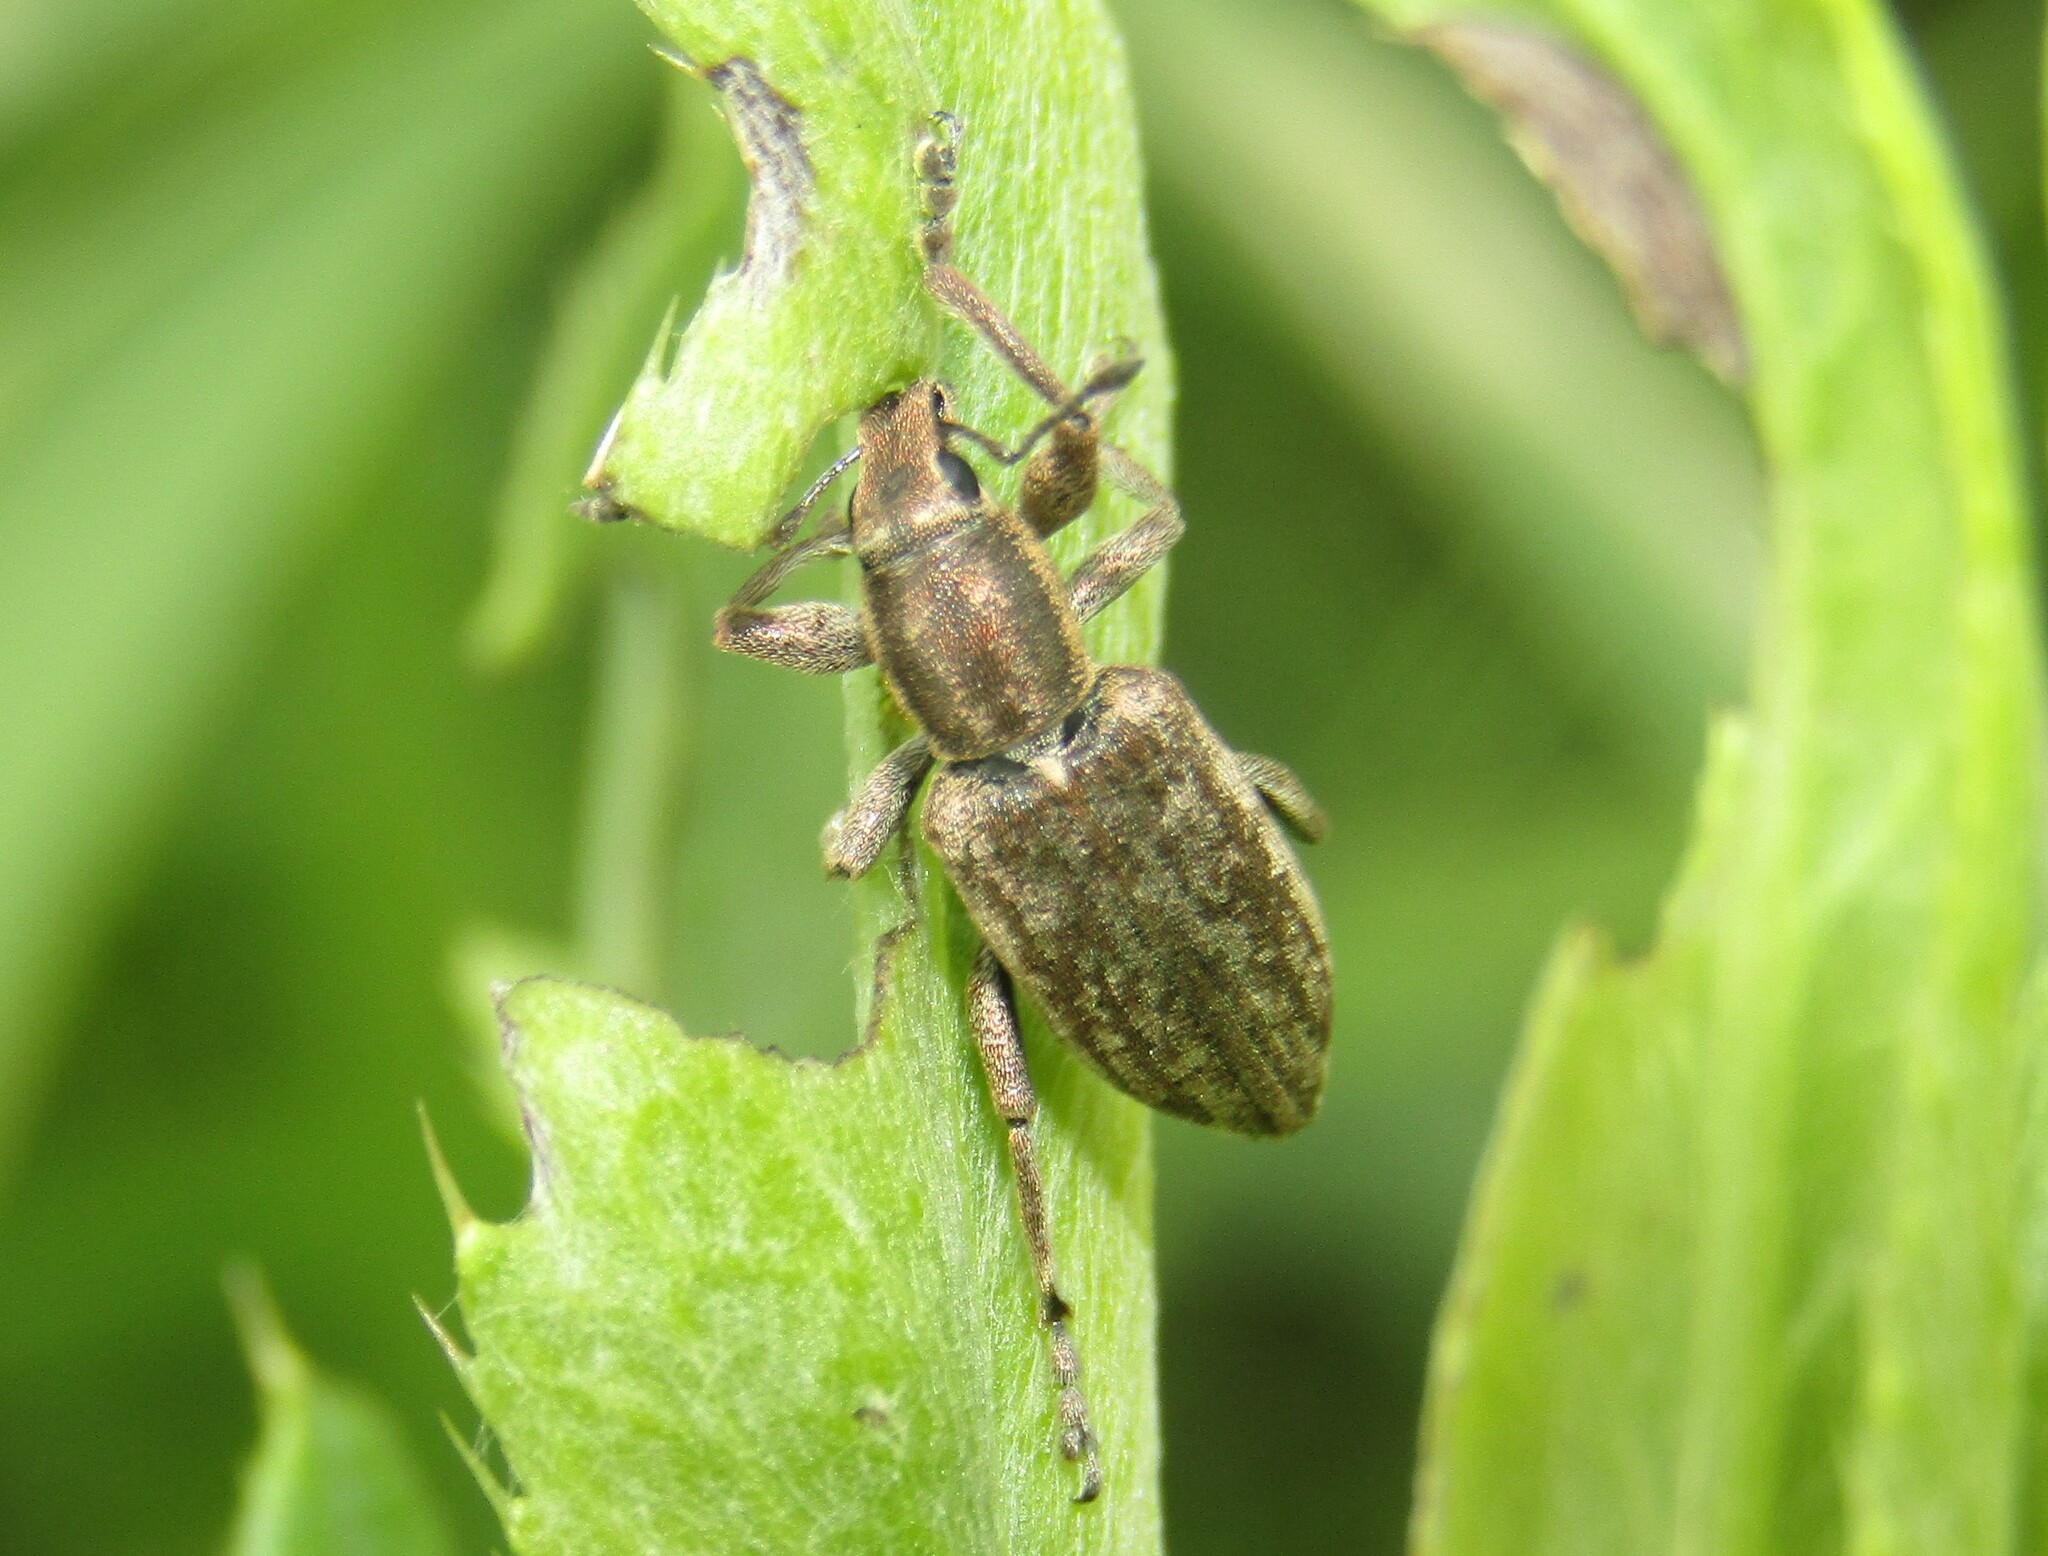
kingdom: Animalia
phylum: Arthropoda
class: Insecta
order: Coleoptera
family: Curculionidae
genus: Tanymecus
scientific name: Tanymecus palliatus
